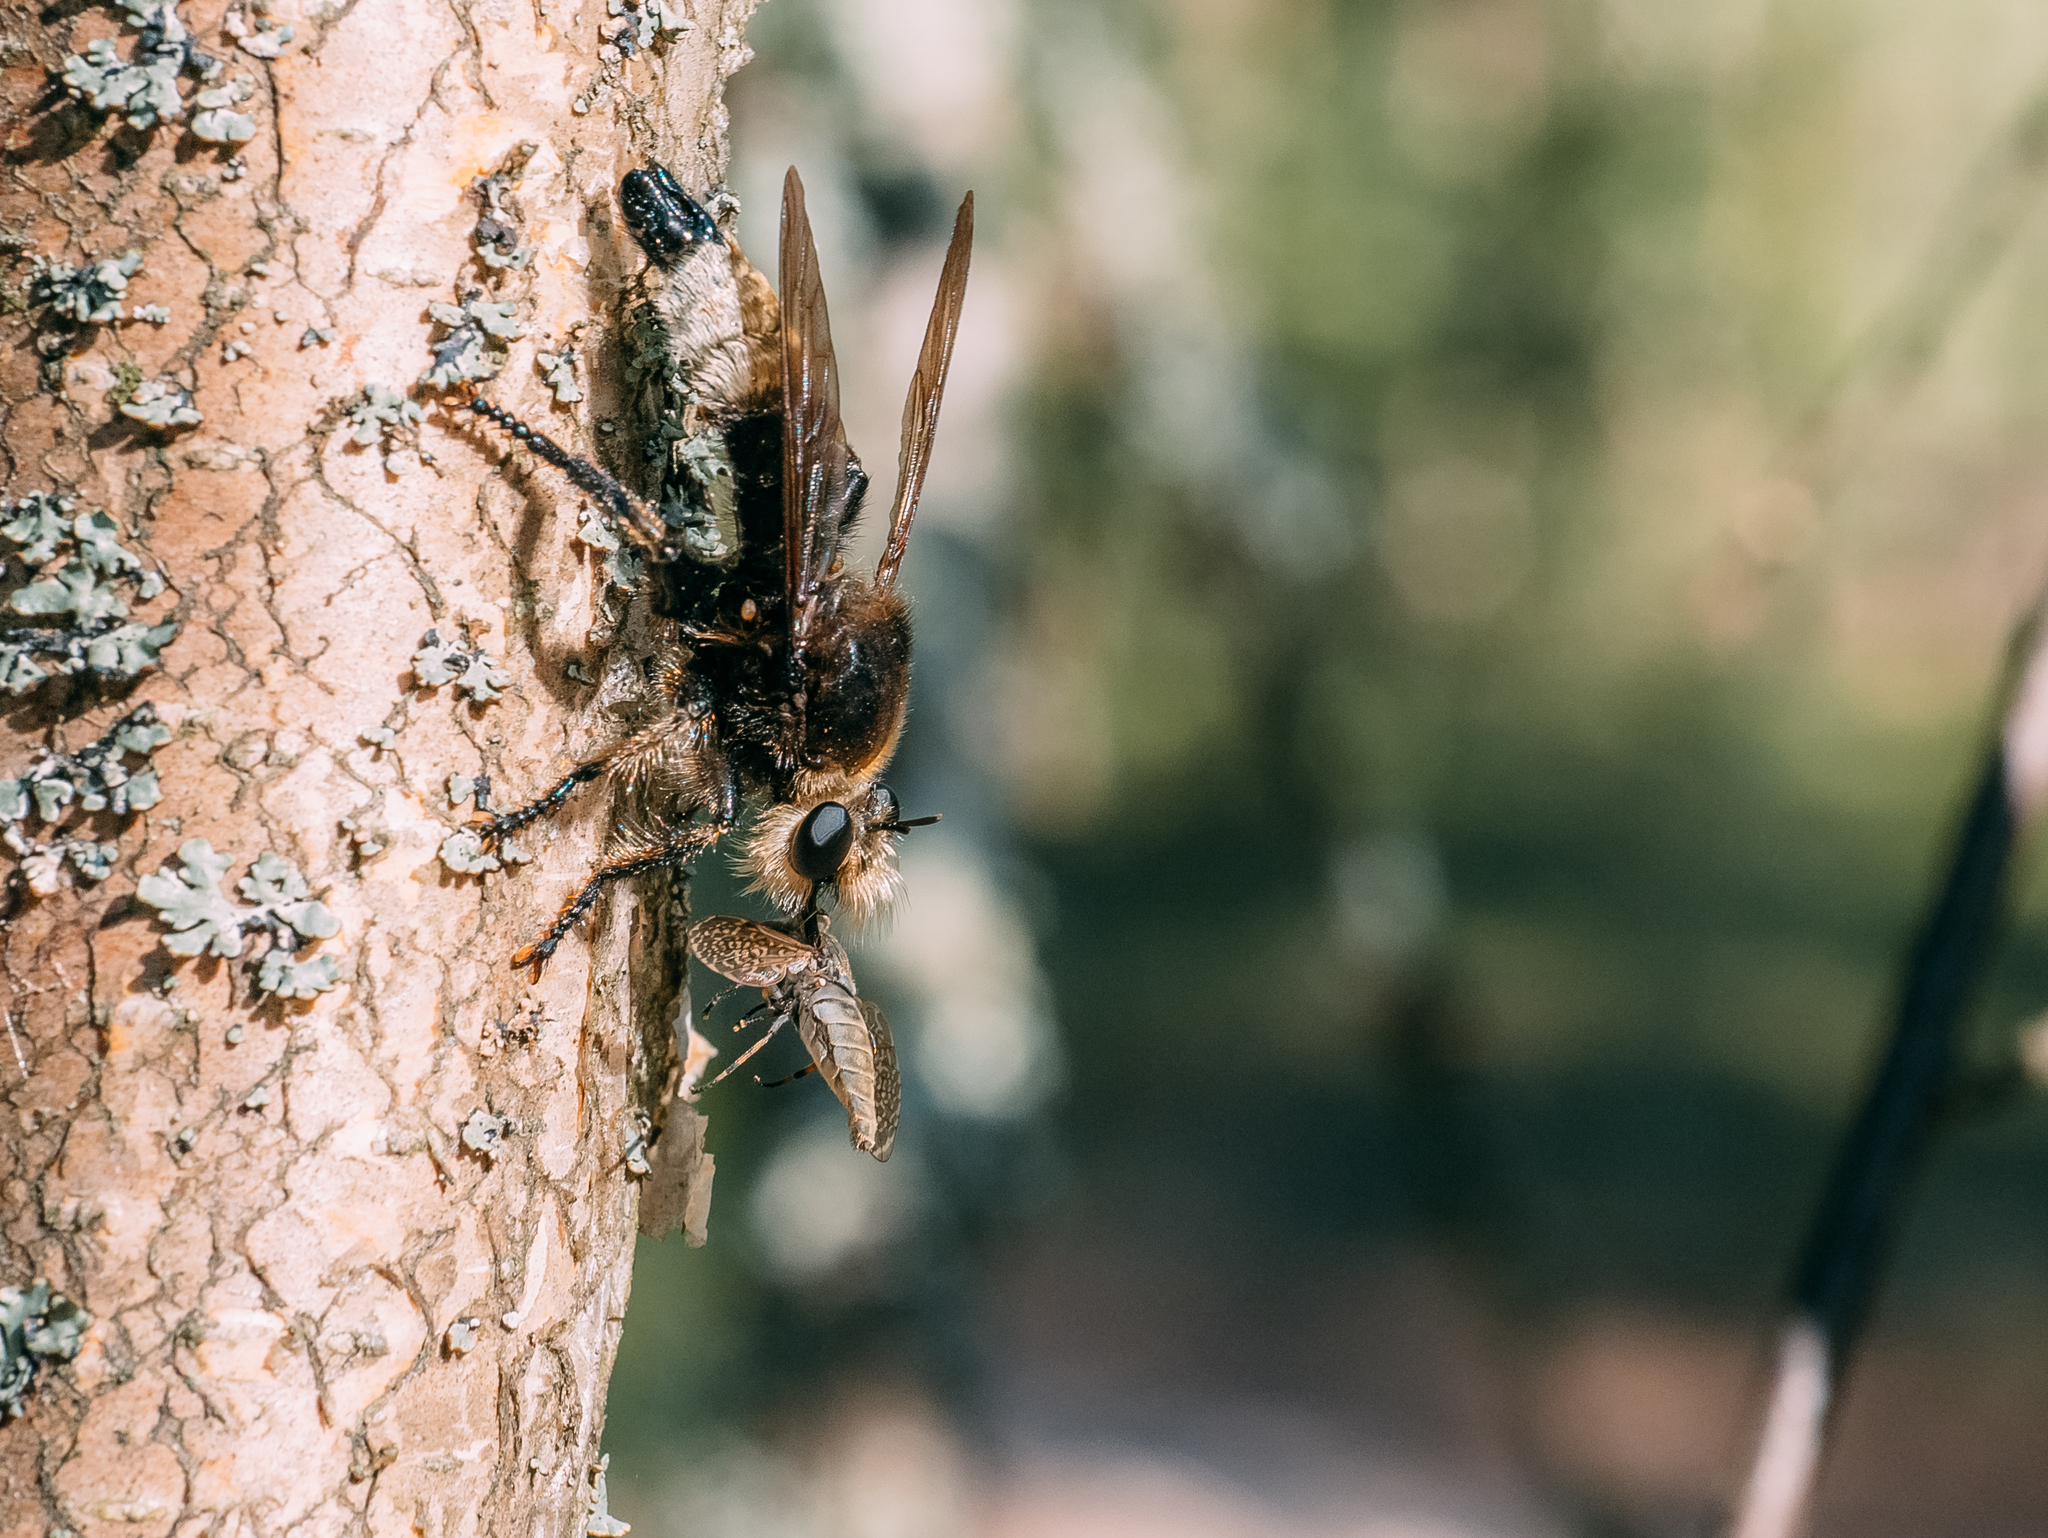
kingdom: Animalia
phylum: Arthropoda
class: Insecta
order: Diptera
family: Asilidae
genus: Laphria
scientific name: Laphria gibbosa
